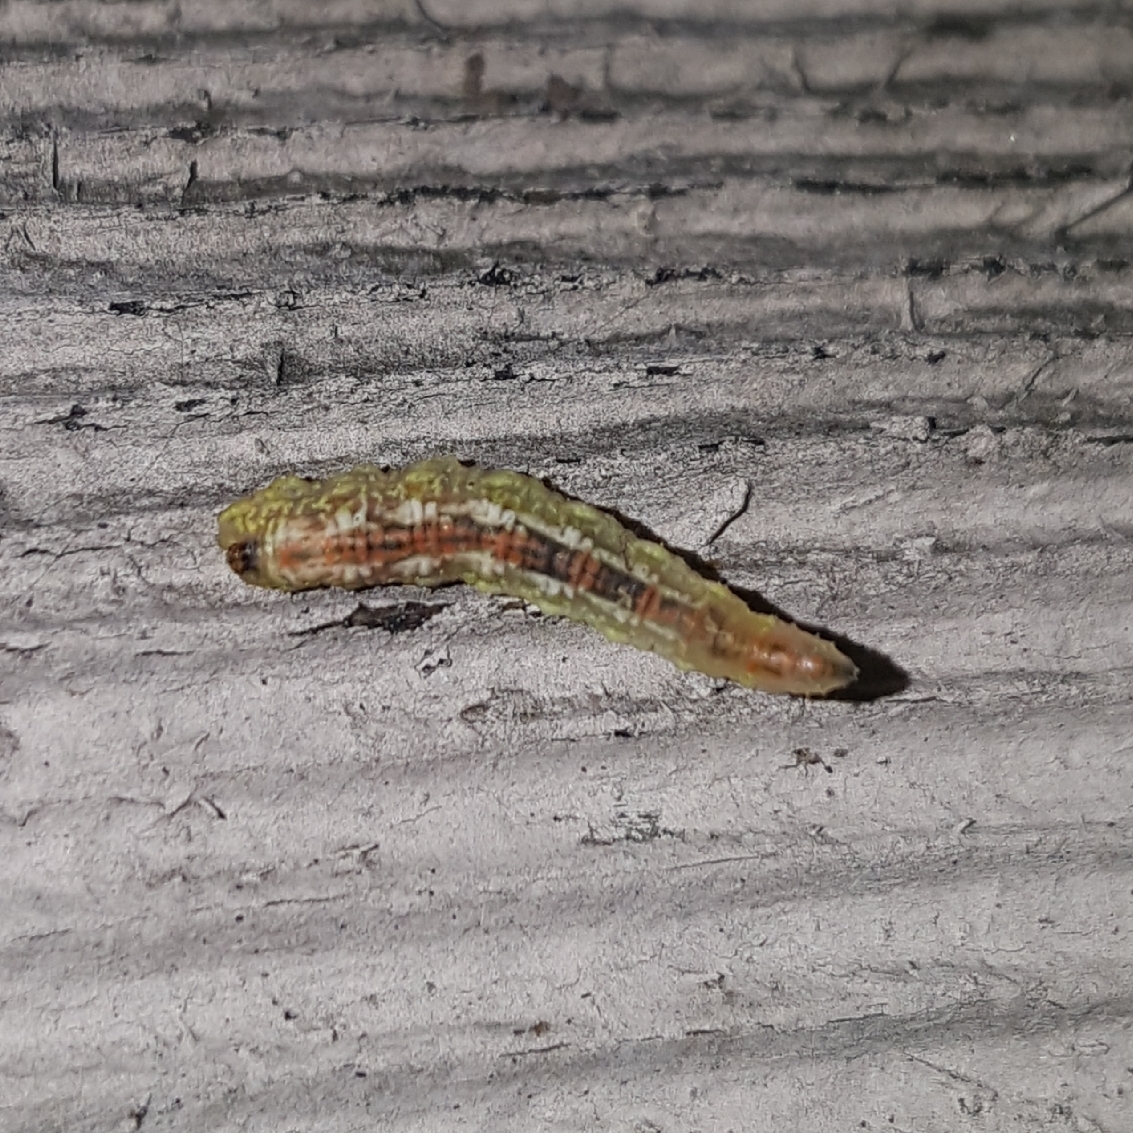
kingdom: Animalia
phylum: Arthropoda
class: Insecta
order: Diptera
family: Syrphidae
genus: Syrphus
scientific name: Syrphus
